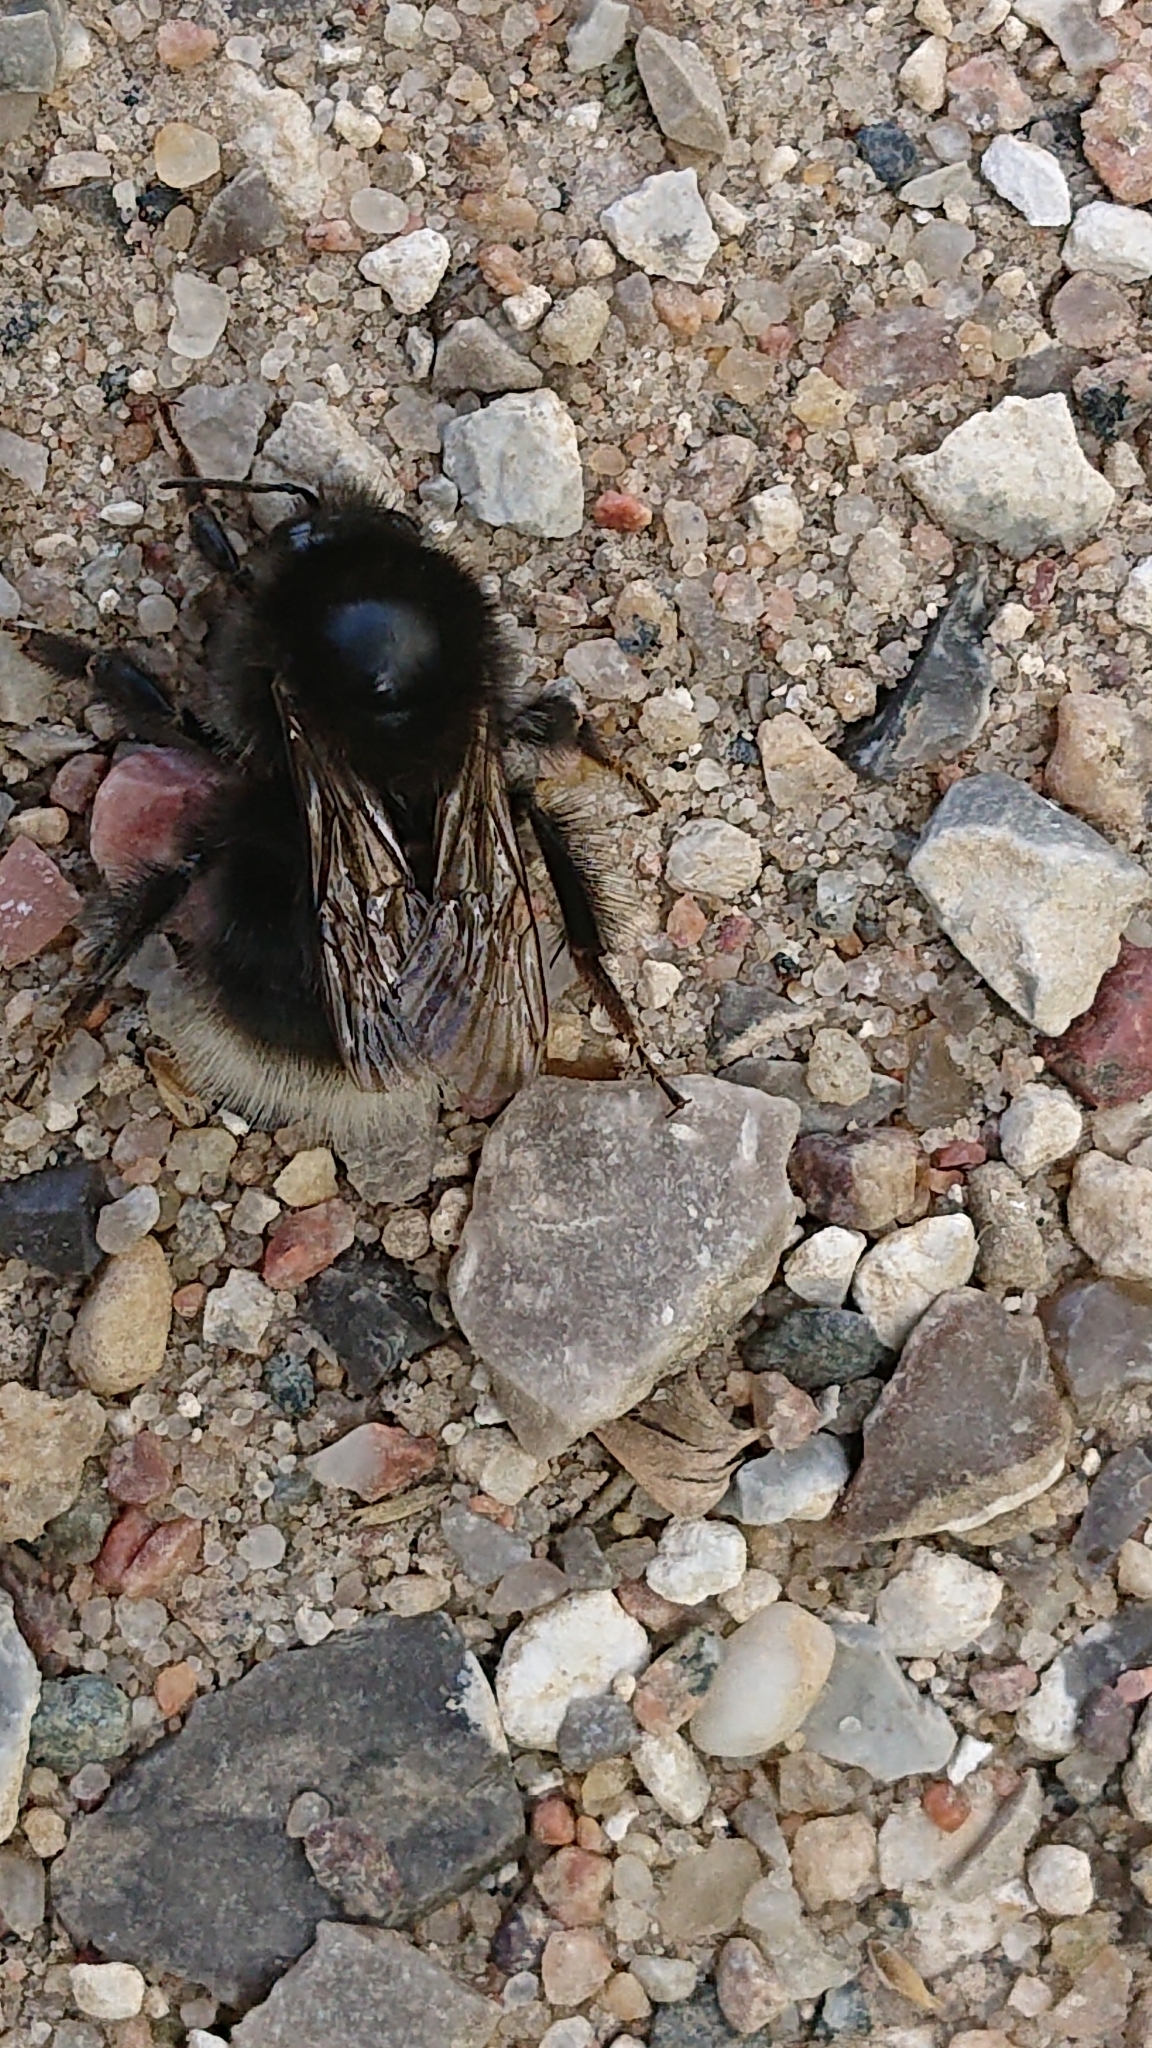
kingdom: Animalia
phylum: Arthropoda
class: Insecta
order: Hymenoptera
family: Apidae
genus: Bombus
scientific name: Bombus hypnorum
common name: New garden bumblebee
